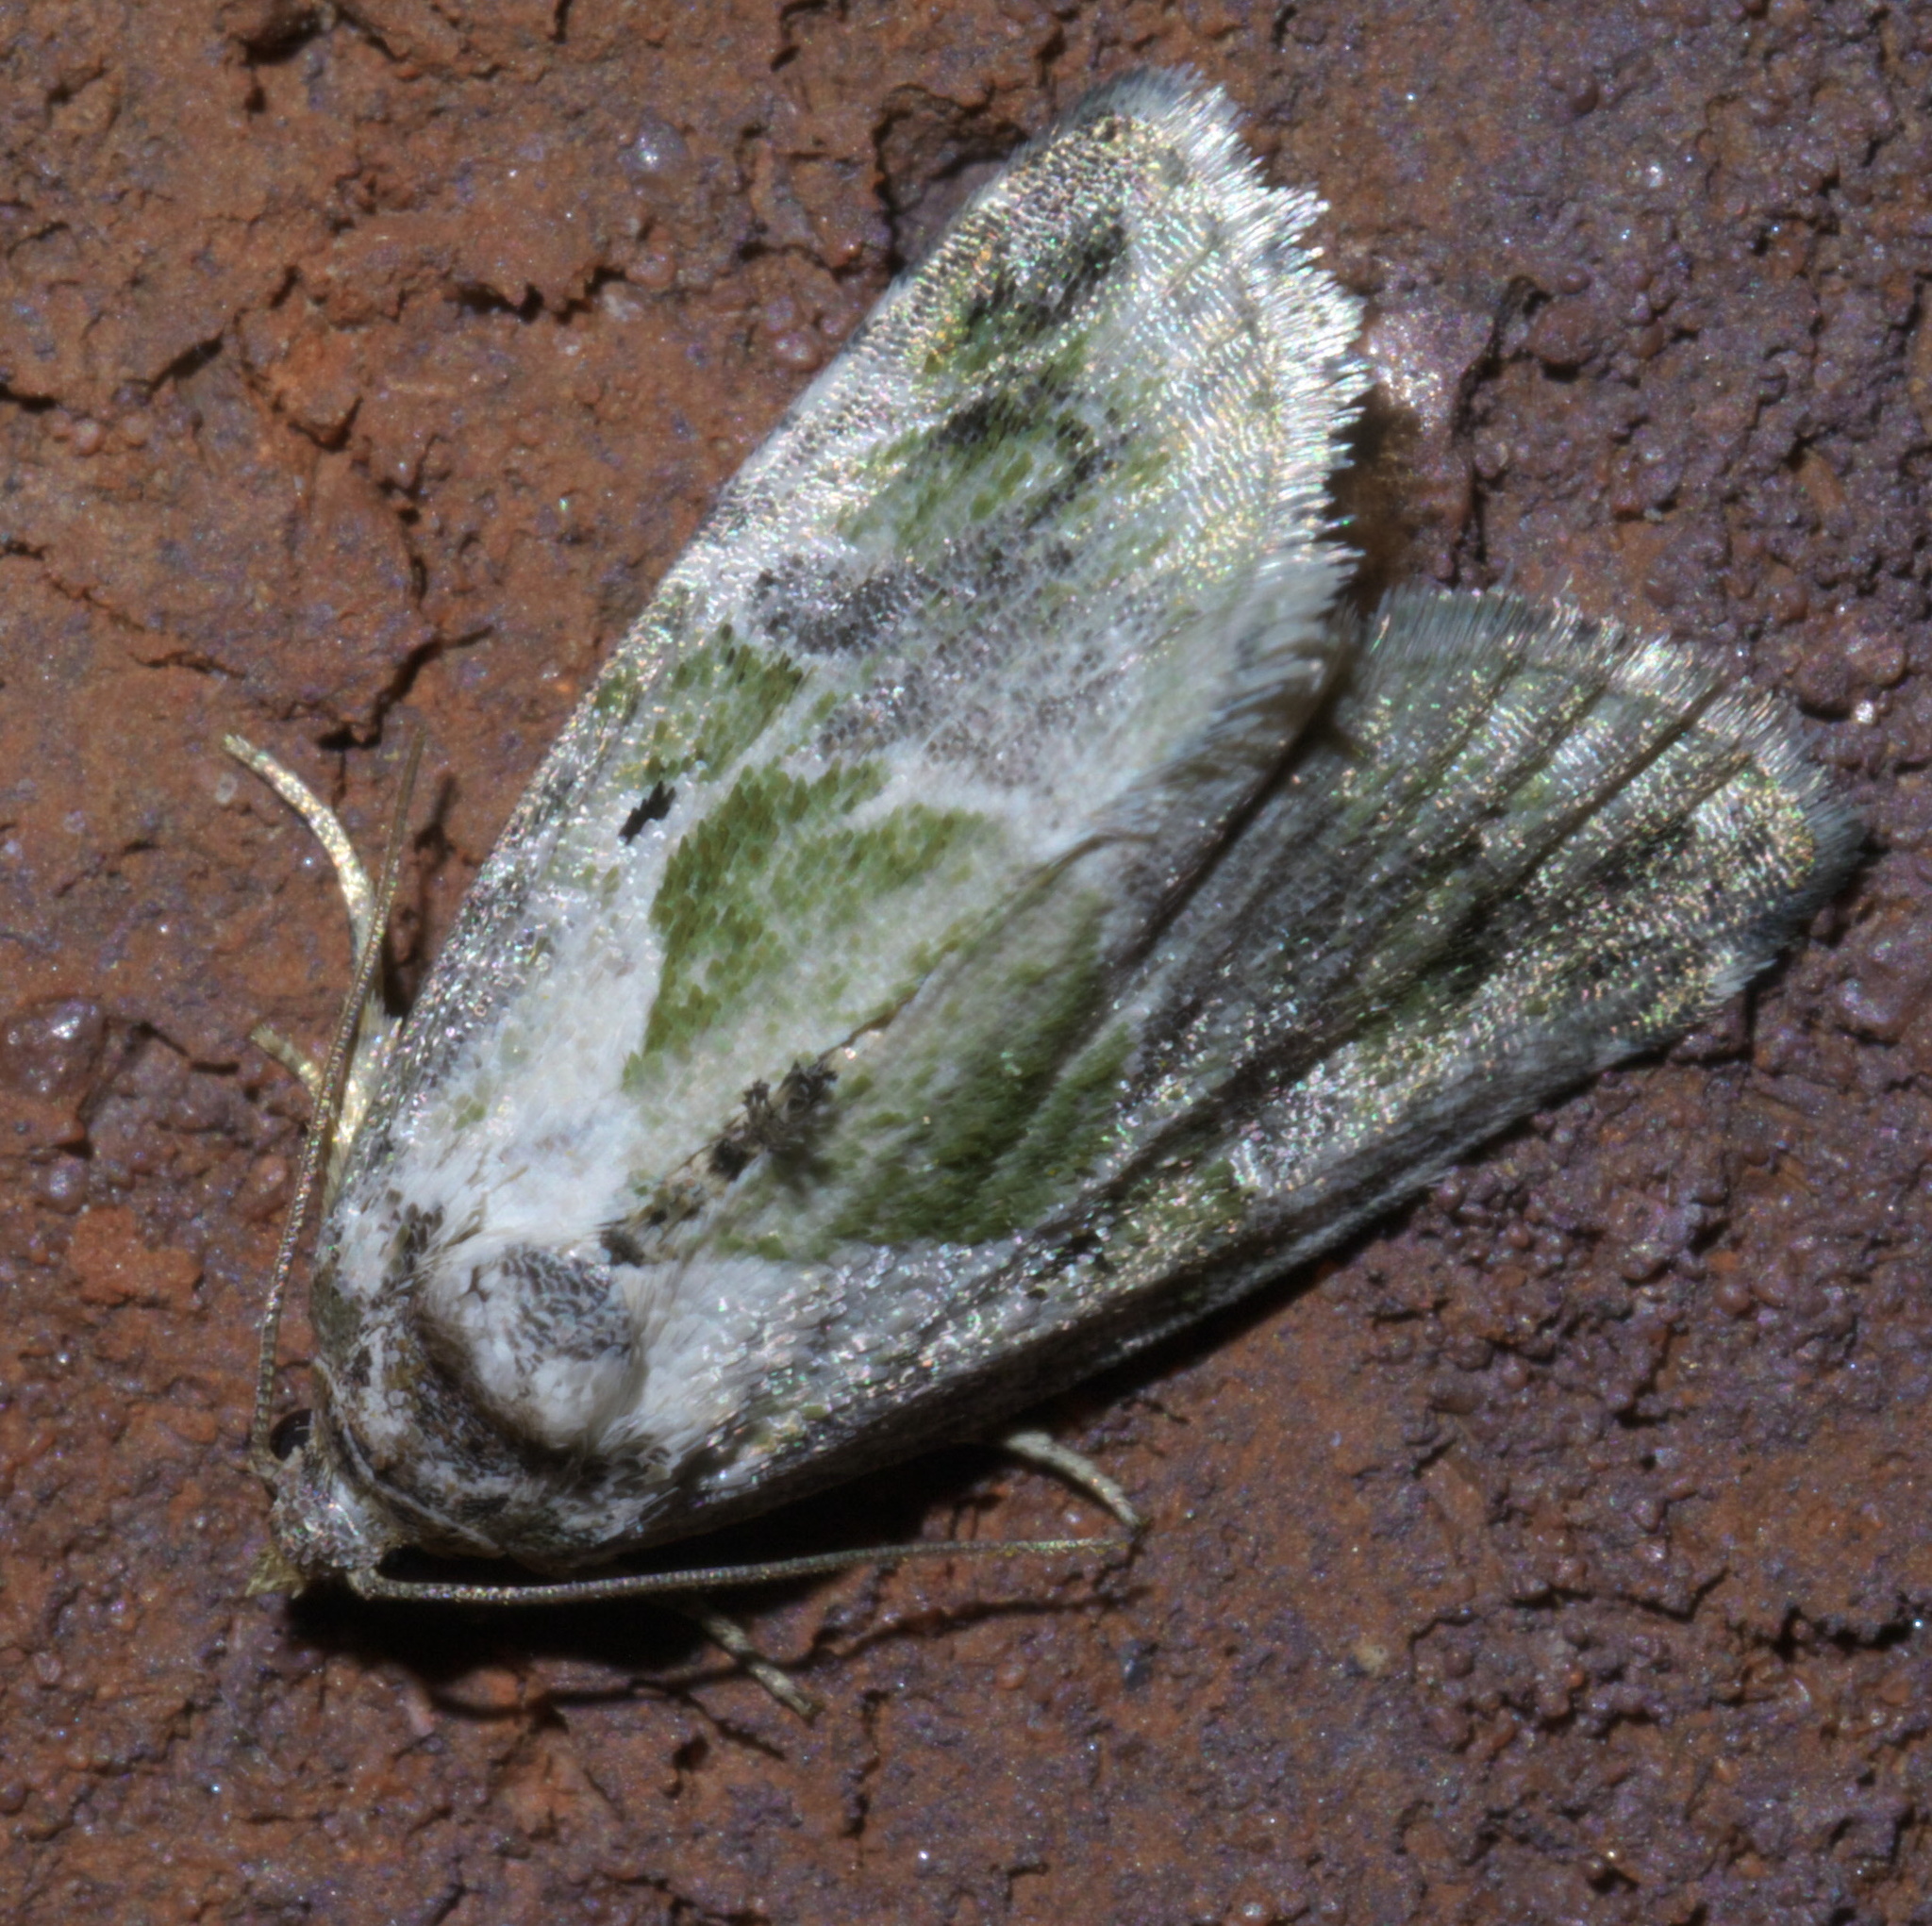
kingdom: Animalia
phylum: Arthropoda
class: Insecta
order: Lepidoptera
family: Noctuidae
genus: Maliattha
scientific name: Maliattha synochitis
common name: Black-dotted glyph
